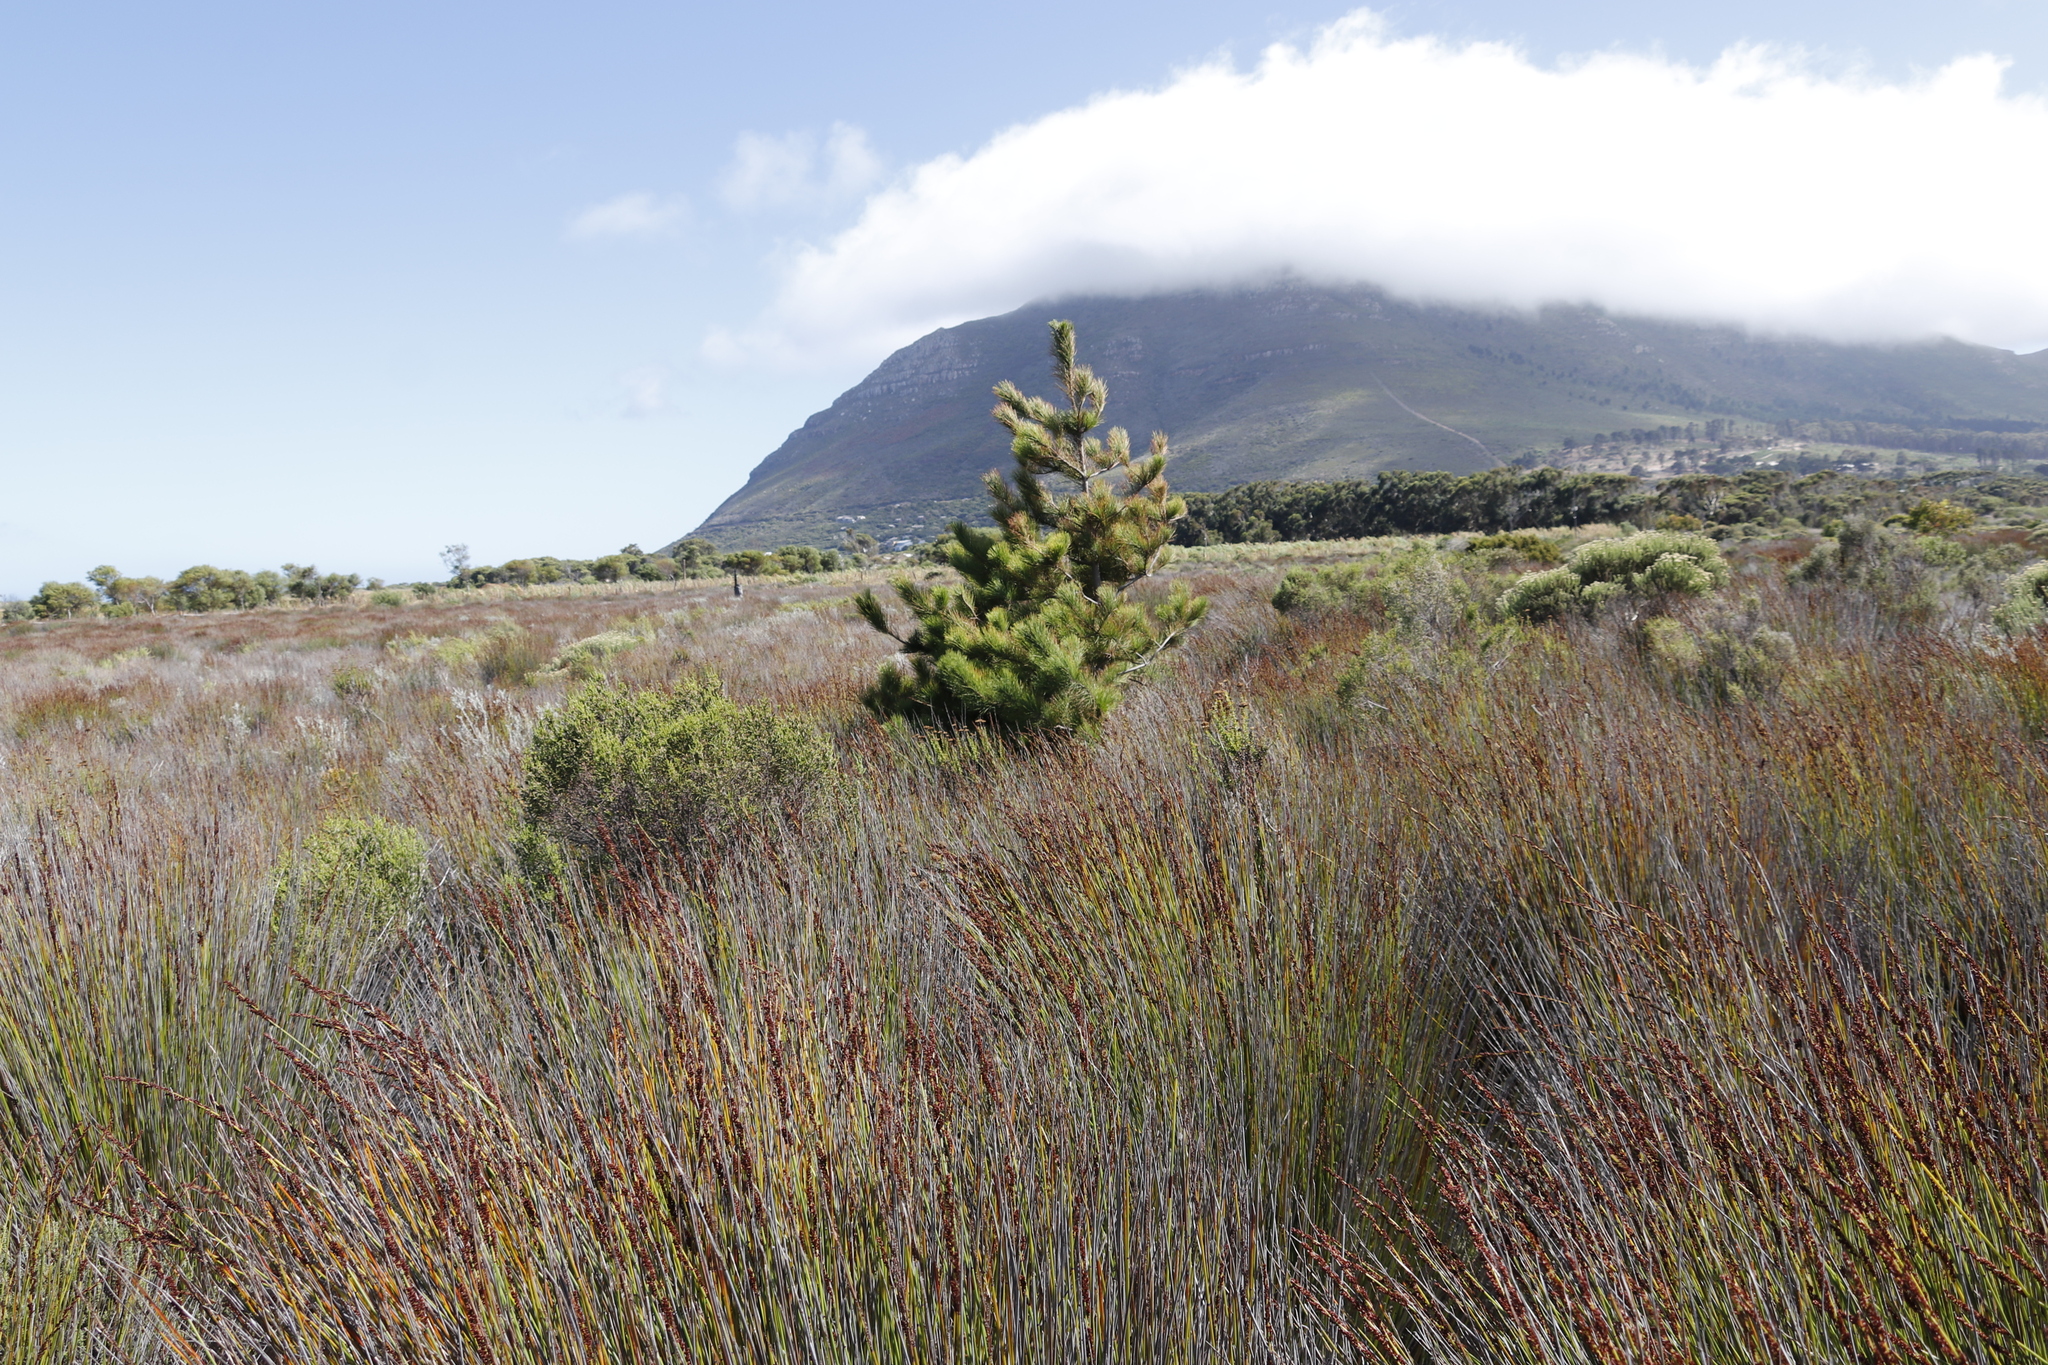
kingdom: Plantae
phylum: Tracheophyta
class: Liliopsida
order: Poales
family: Restionaceae
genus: Elegia
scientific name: Elegia tectorum
